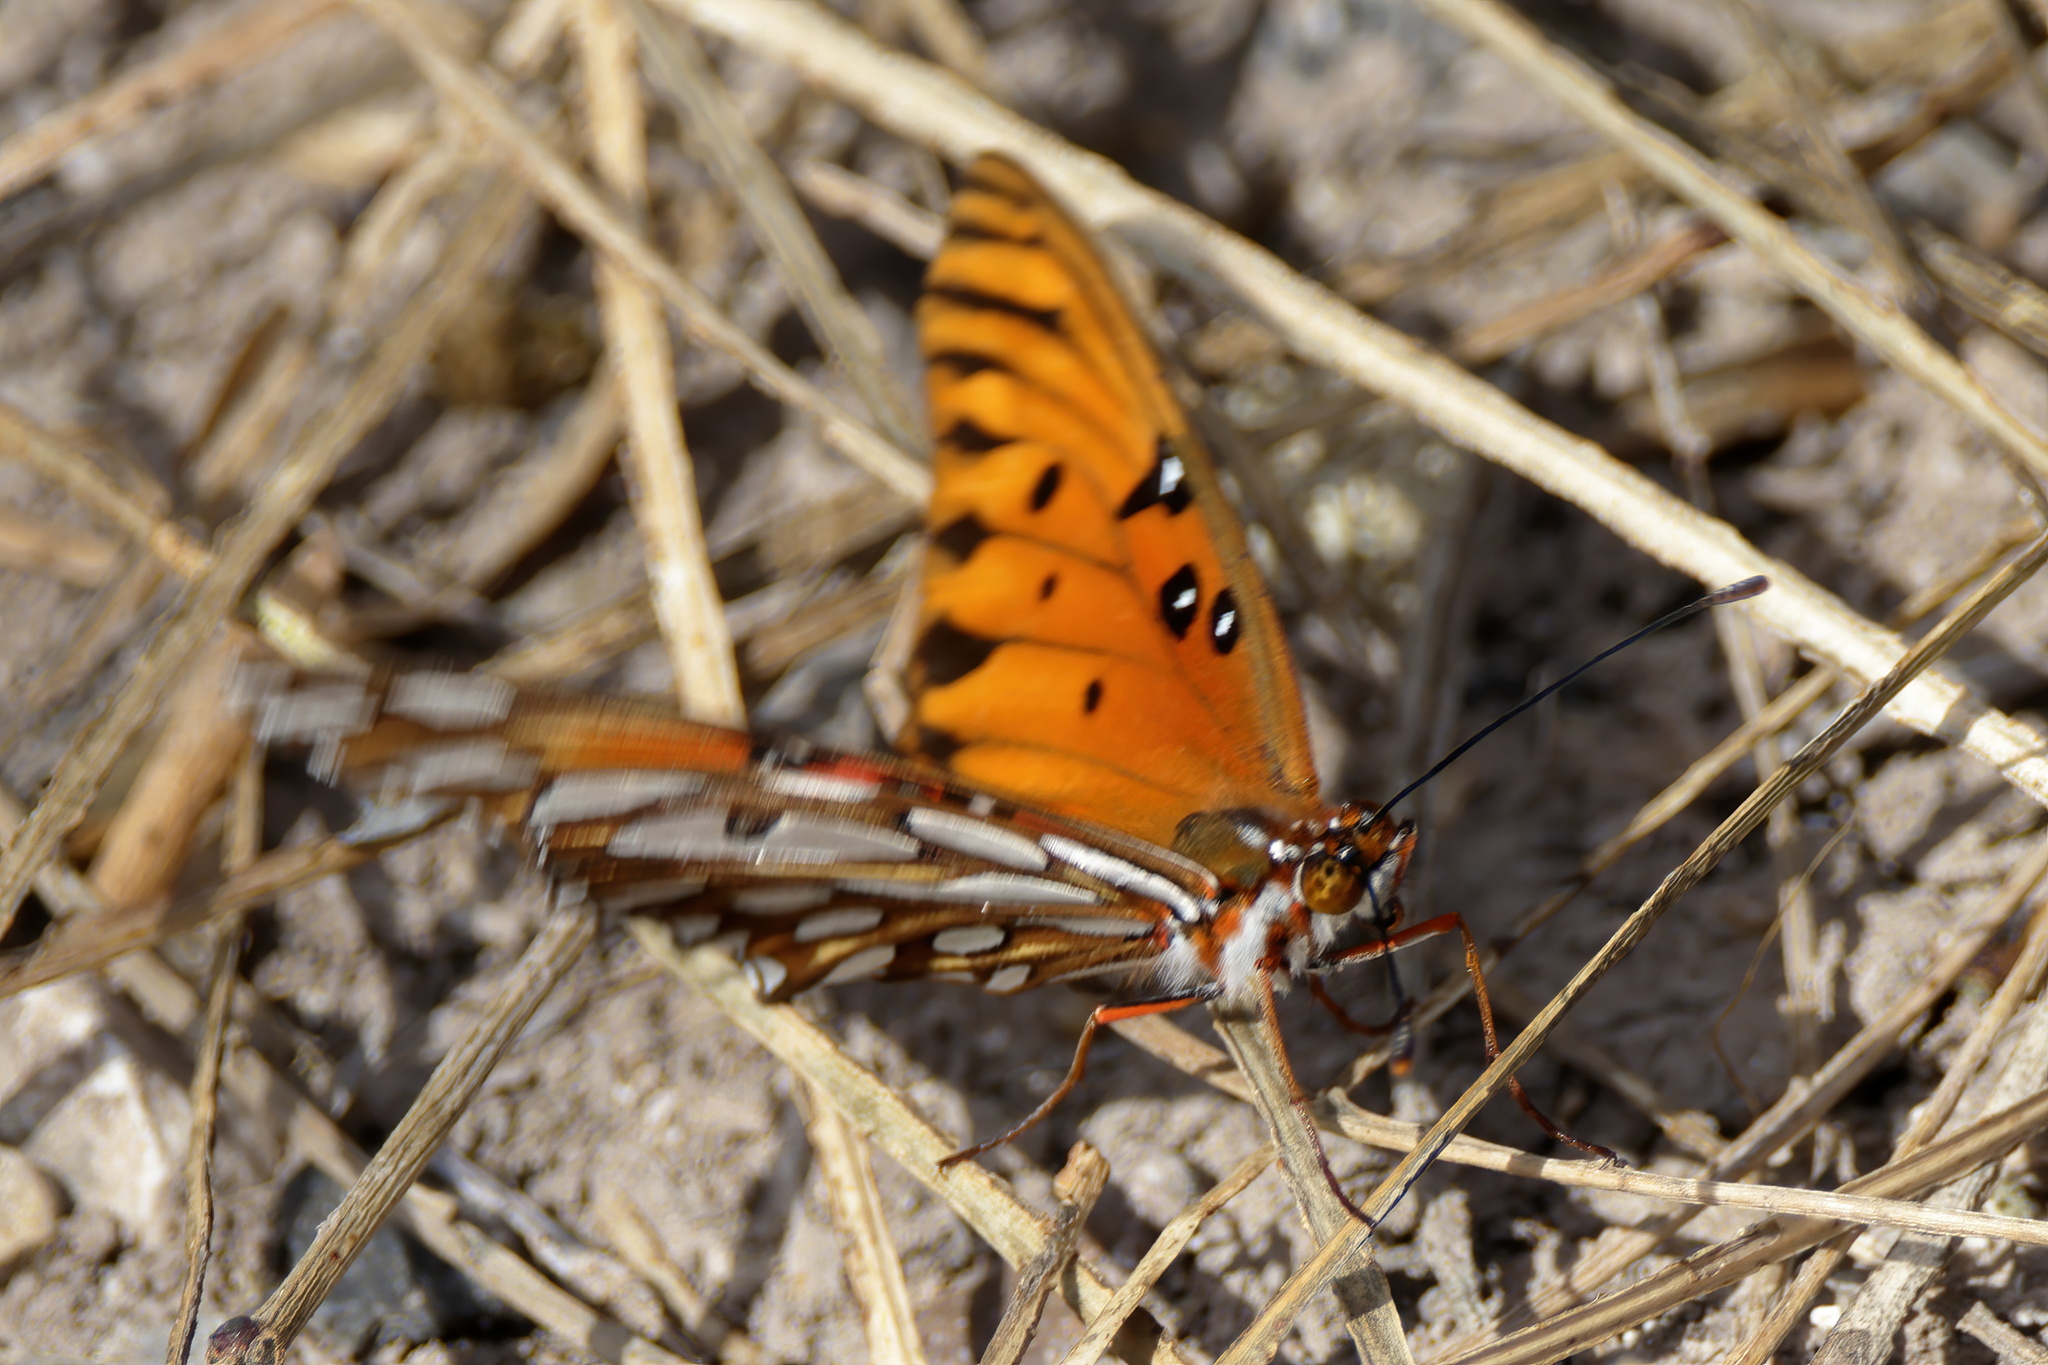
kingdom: Animalia
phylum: Arthropoda
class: Insecta
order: Lepidoptera
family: Nymphalidae
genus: Dione
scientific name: Dione vanillae
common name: Gulf fritillary
